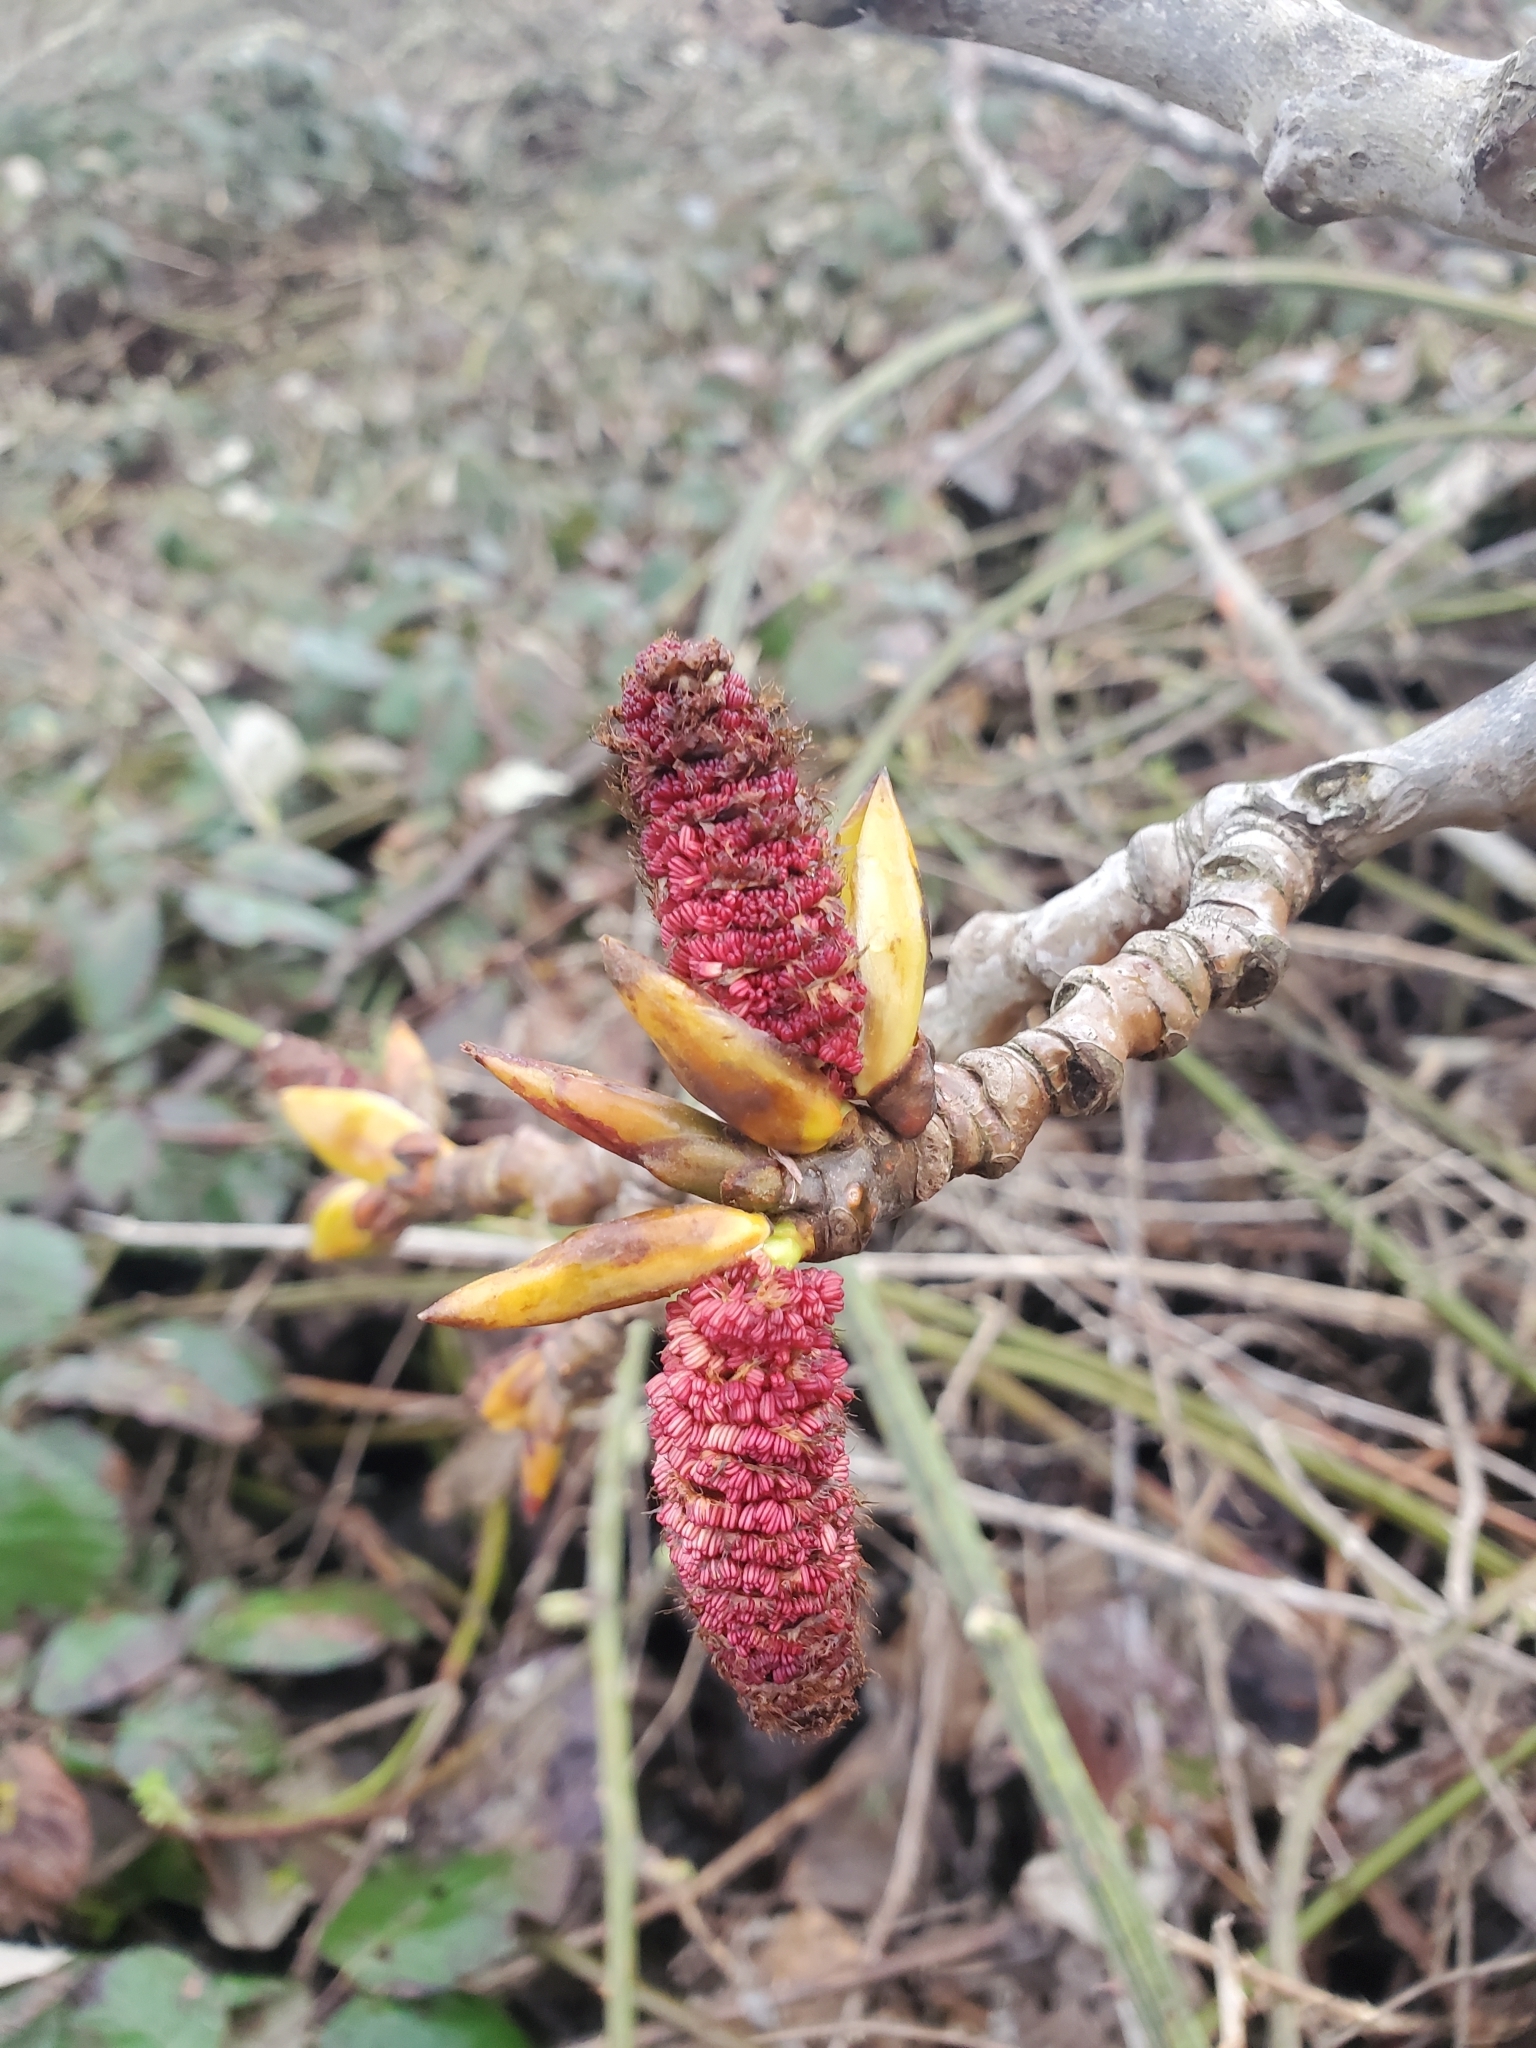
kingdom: Plantae
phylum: Tracheophyta
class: Magnoliopsida
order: Malpighiales
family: Salicaceae
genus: Populus
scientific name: Populus nigra
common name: Black poplar
